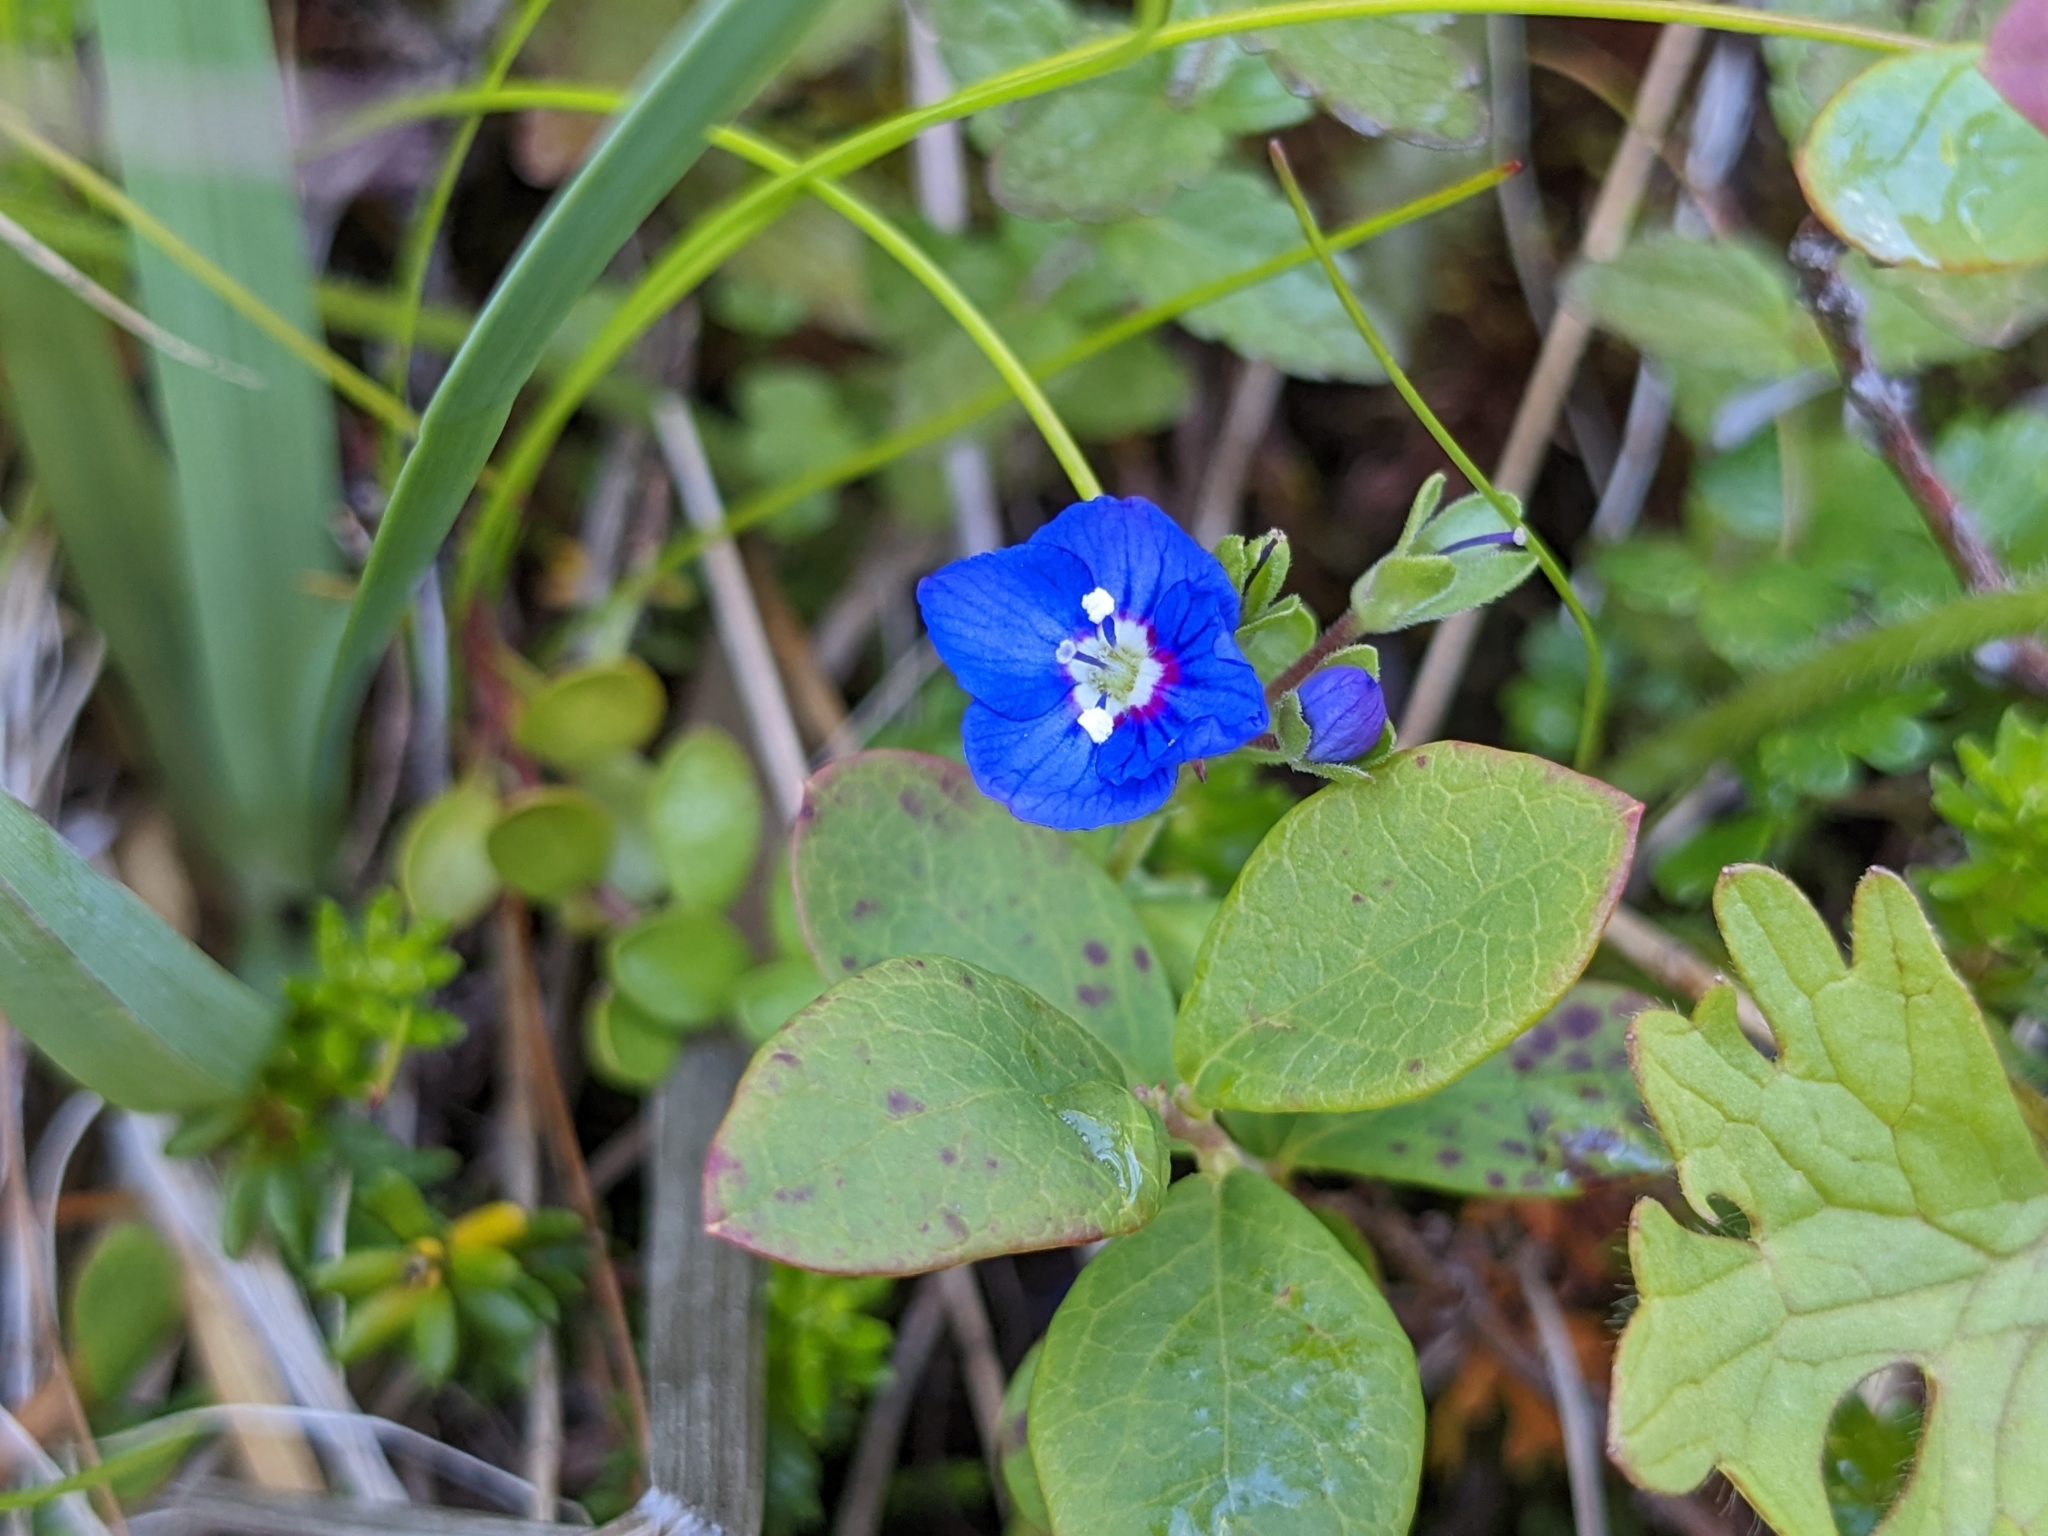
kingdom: Plantae
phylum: Tracheophyta
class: Magnoliopsida
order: Lamiales
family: Plantaginaceae
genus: Veronica
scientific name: Veronica fruticans
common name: Rock speedwell
